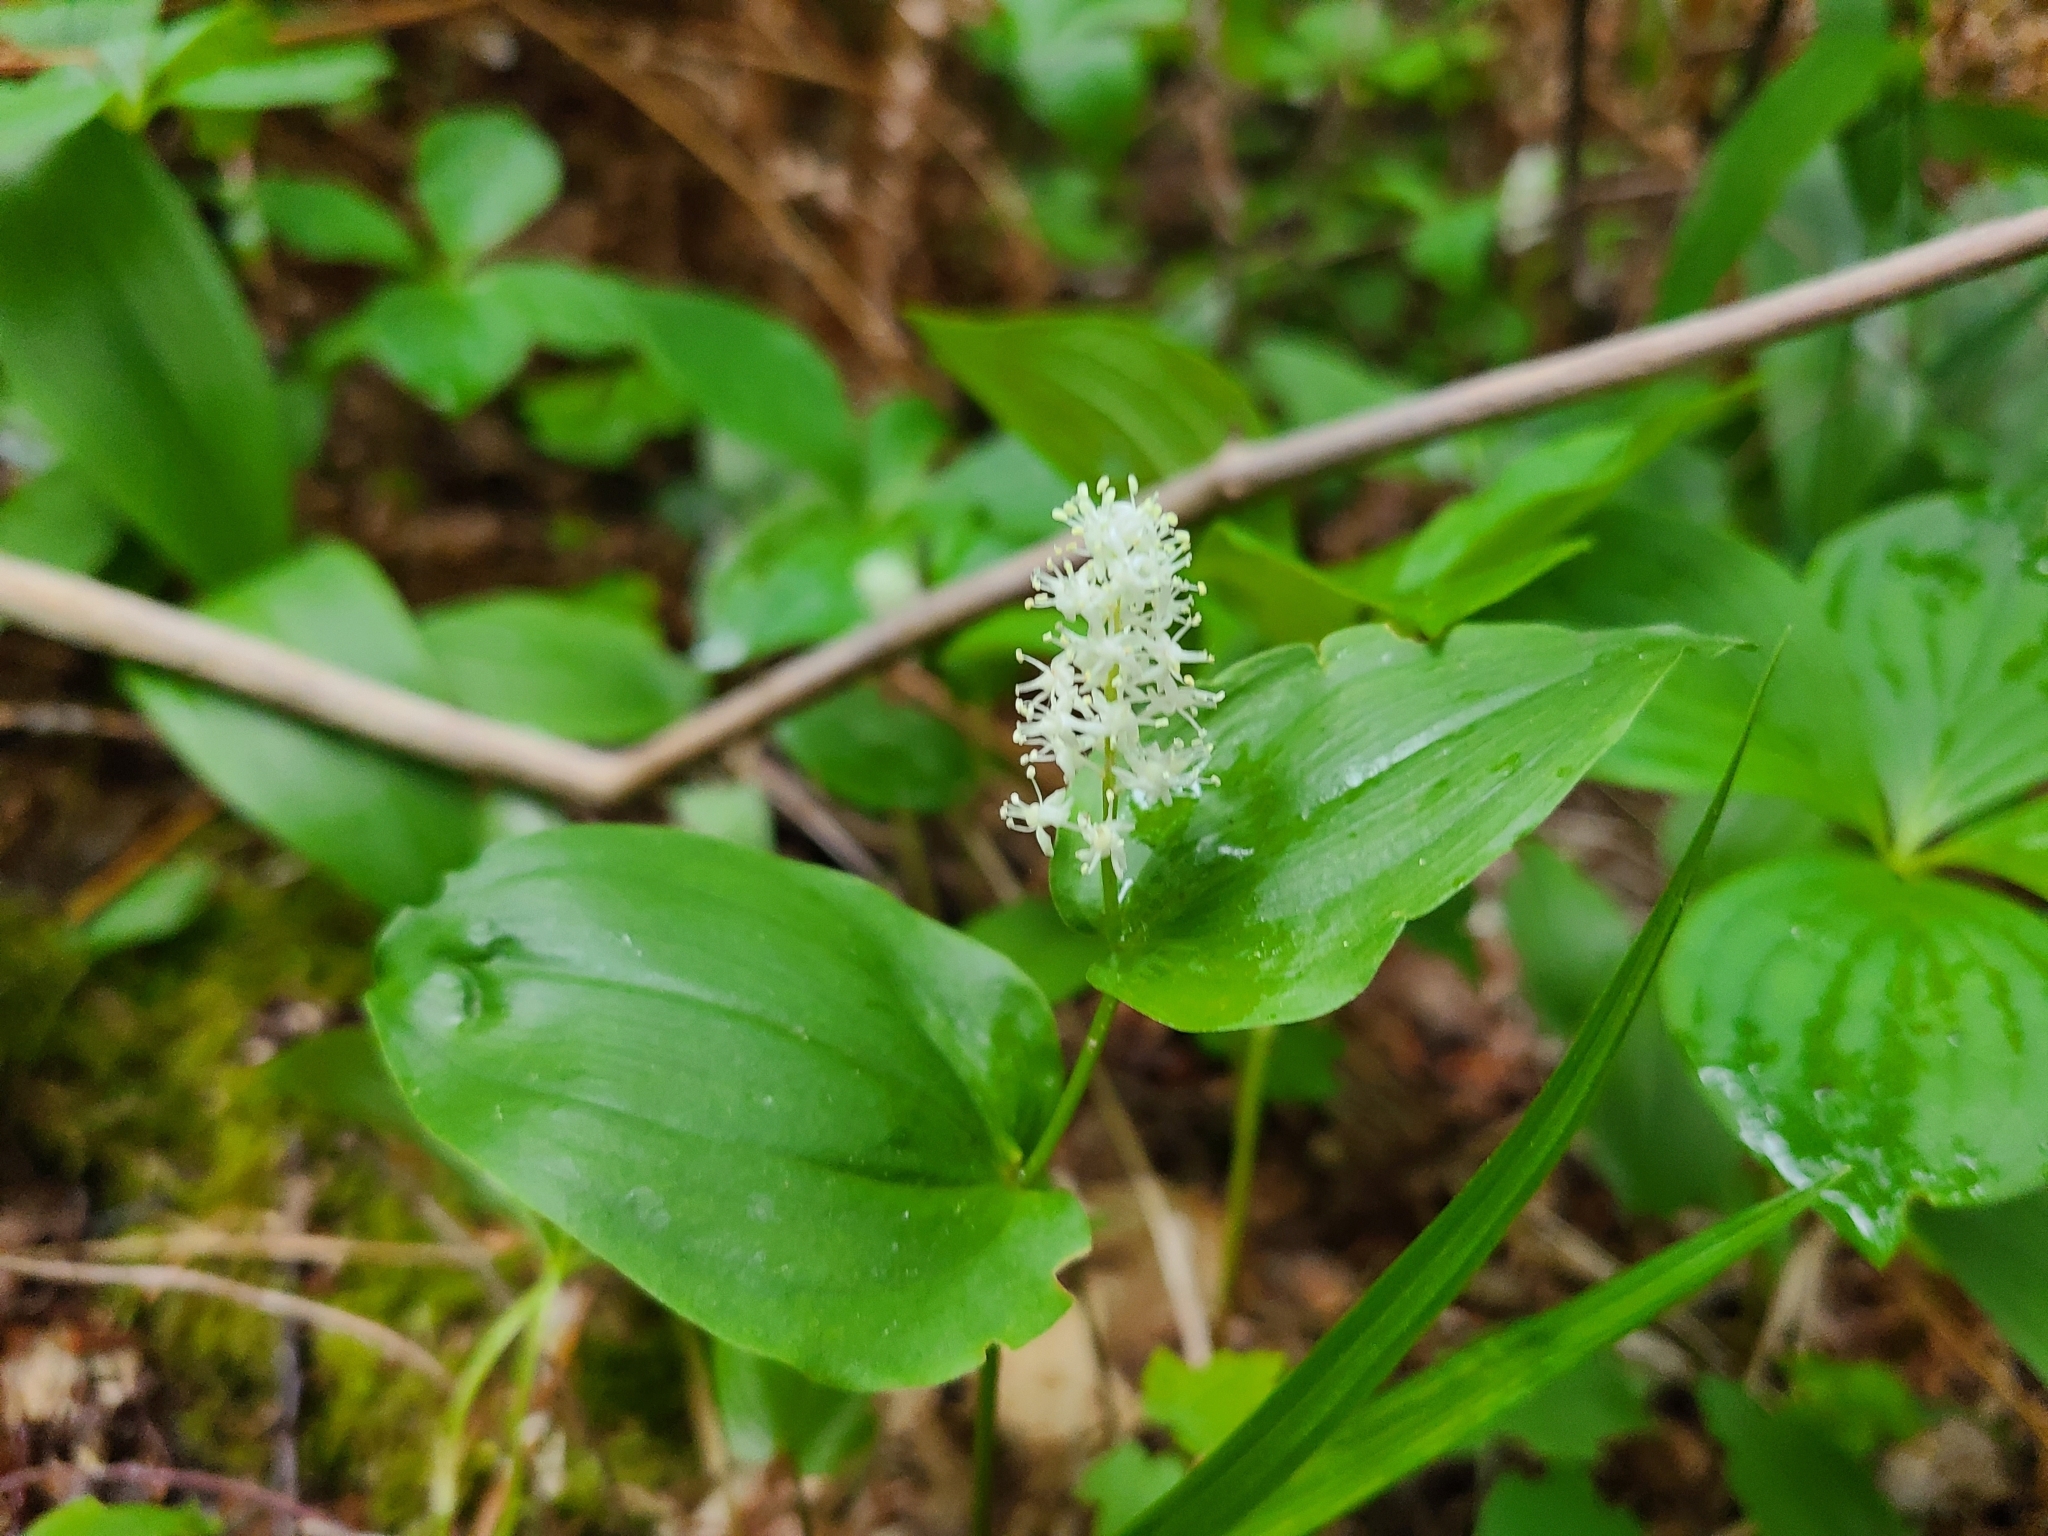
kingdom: Plantae
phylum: Tracheophyta
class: Liliopsida
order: Asparagales
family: Asparagaceae
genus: Maianthemum
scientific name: Maianthemum canadense
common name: False lily-of-the-valley
